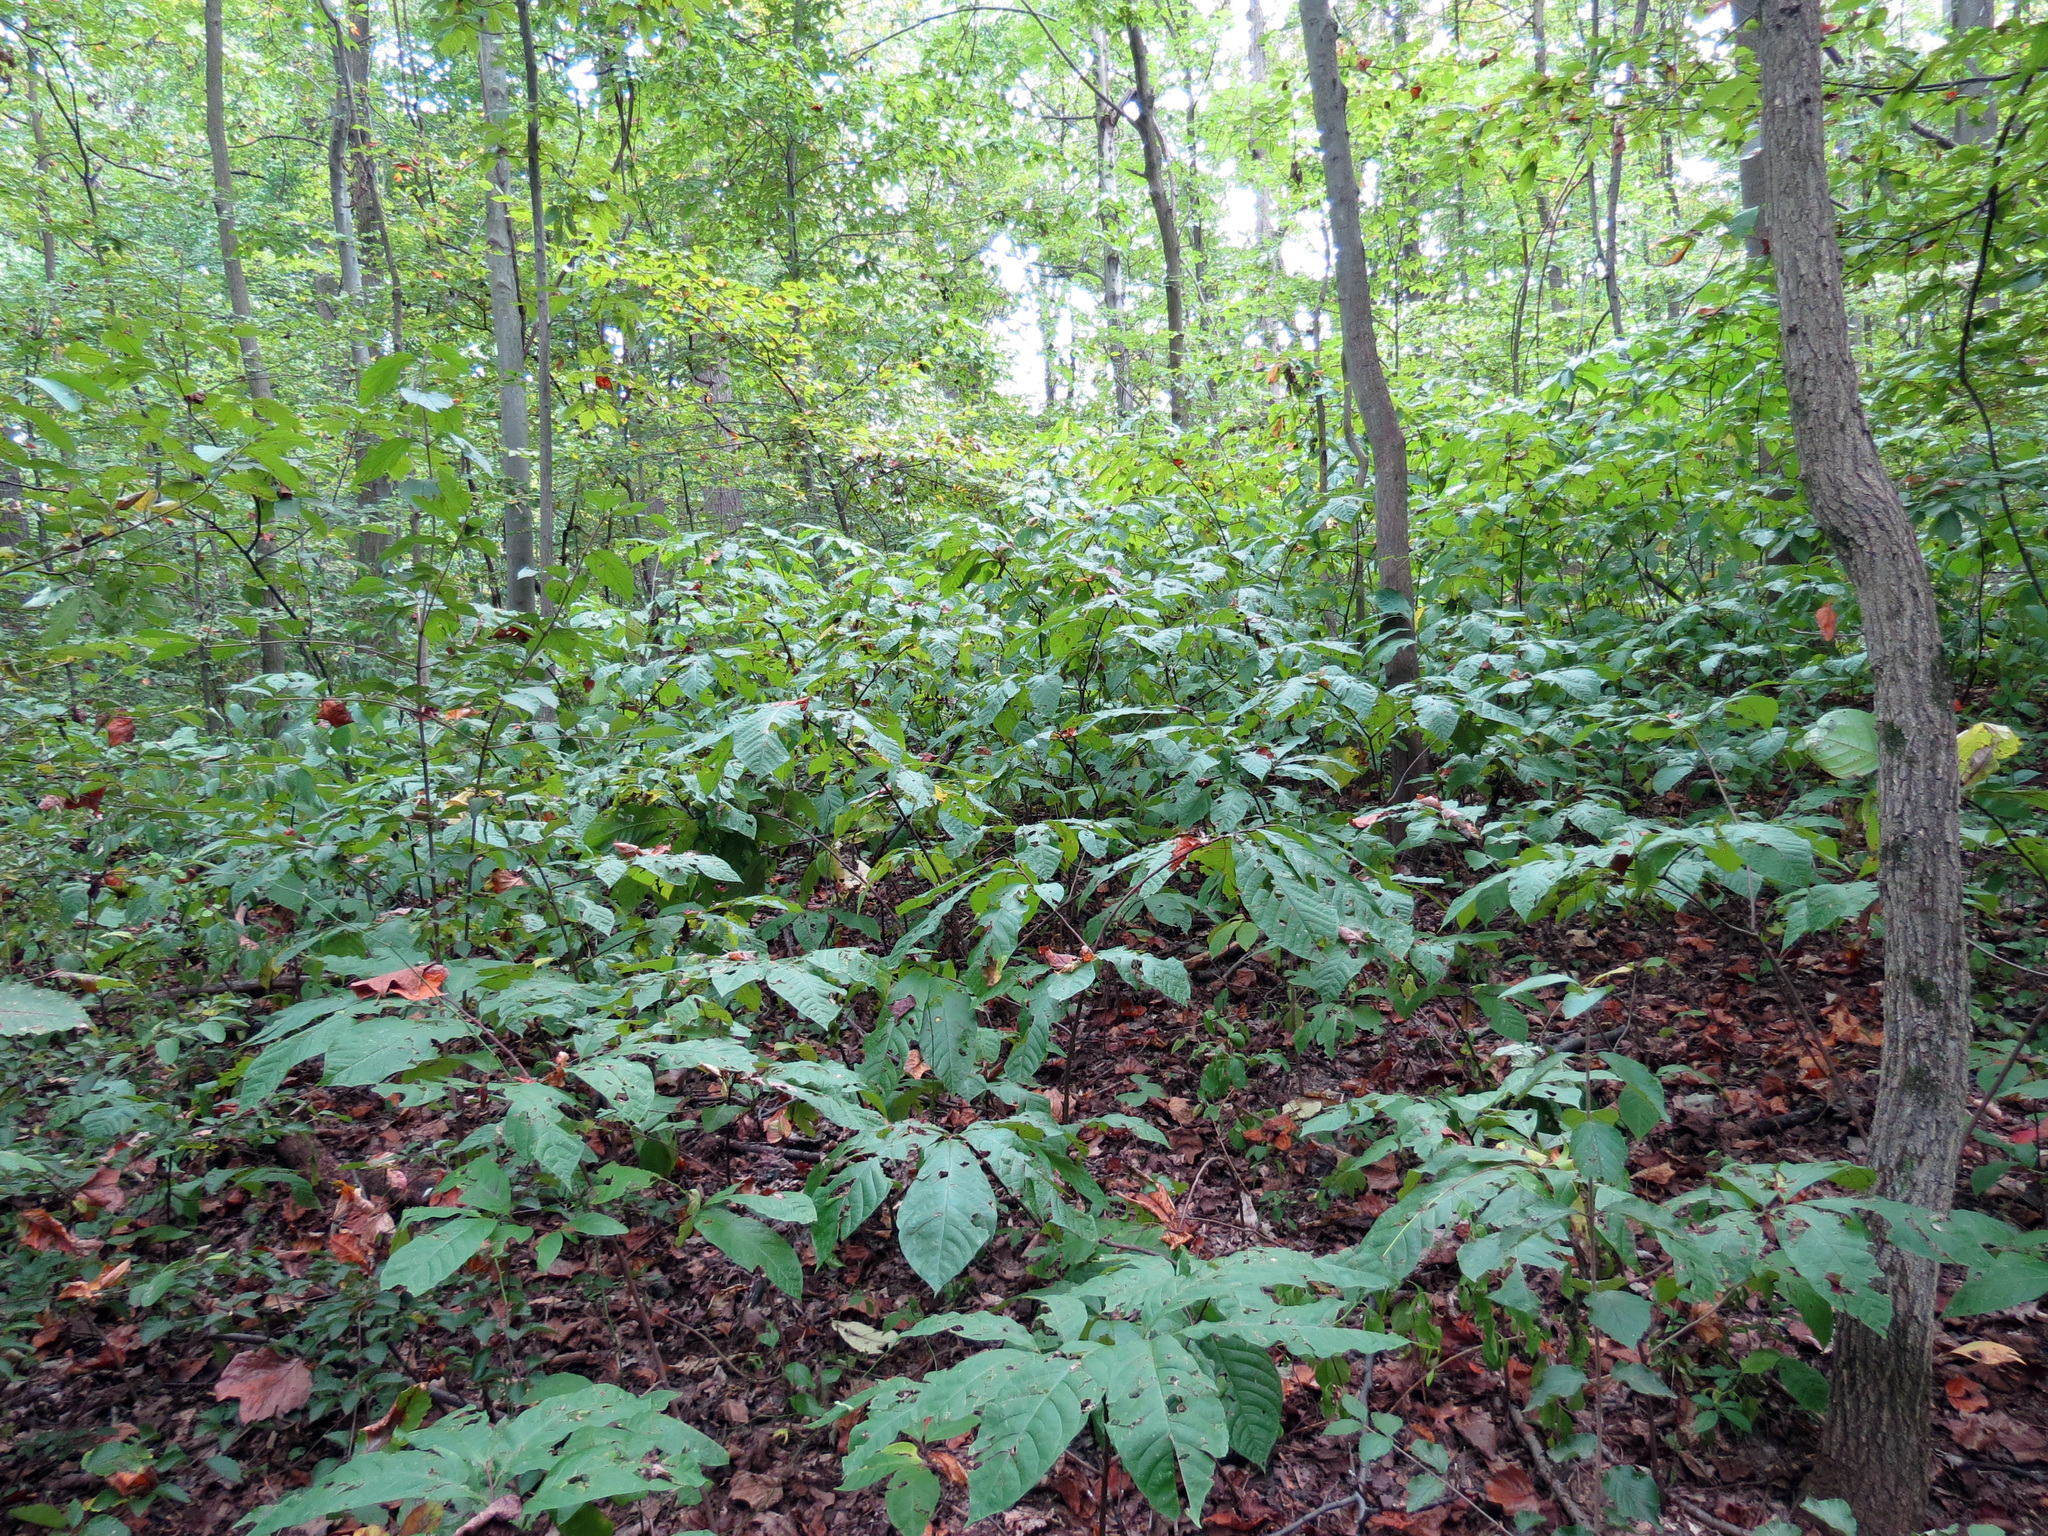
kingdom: Plantae
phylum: Tracheophyta
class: Magnoliopsida
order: Magnoliales
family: Annonaceae
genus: Asimina
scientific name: Asimina triloba
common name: Dog-banana
